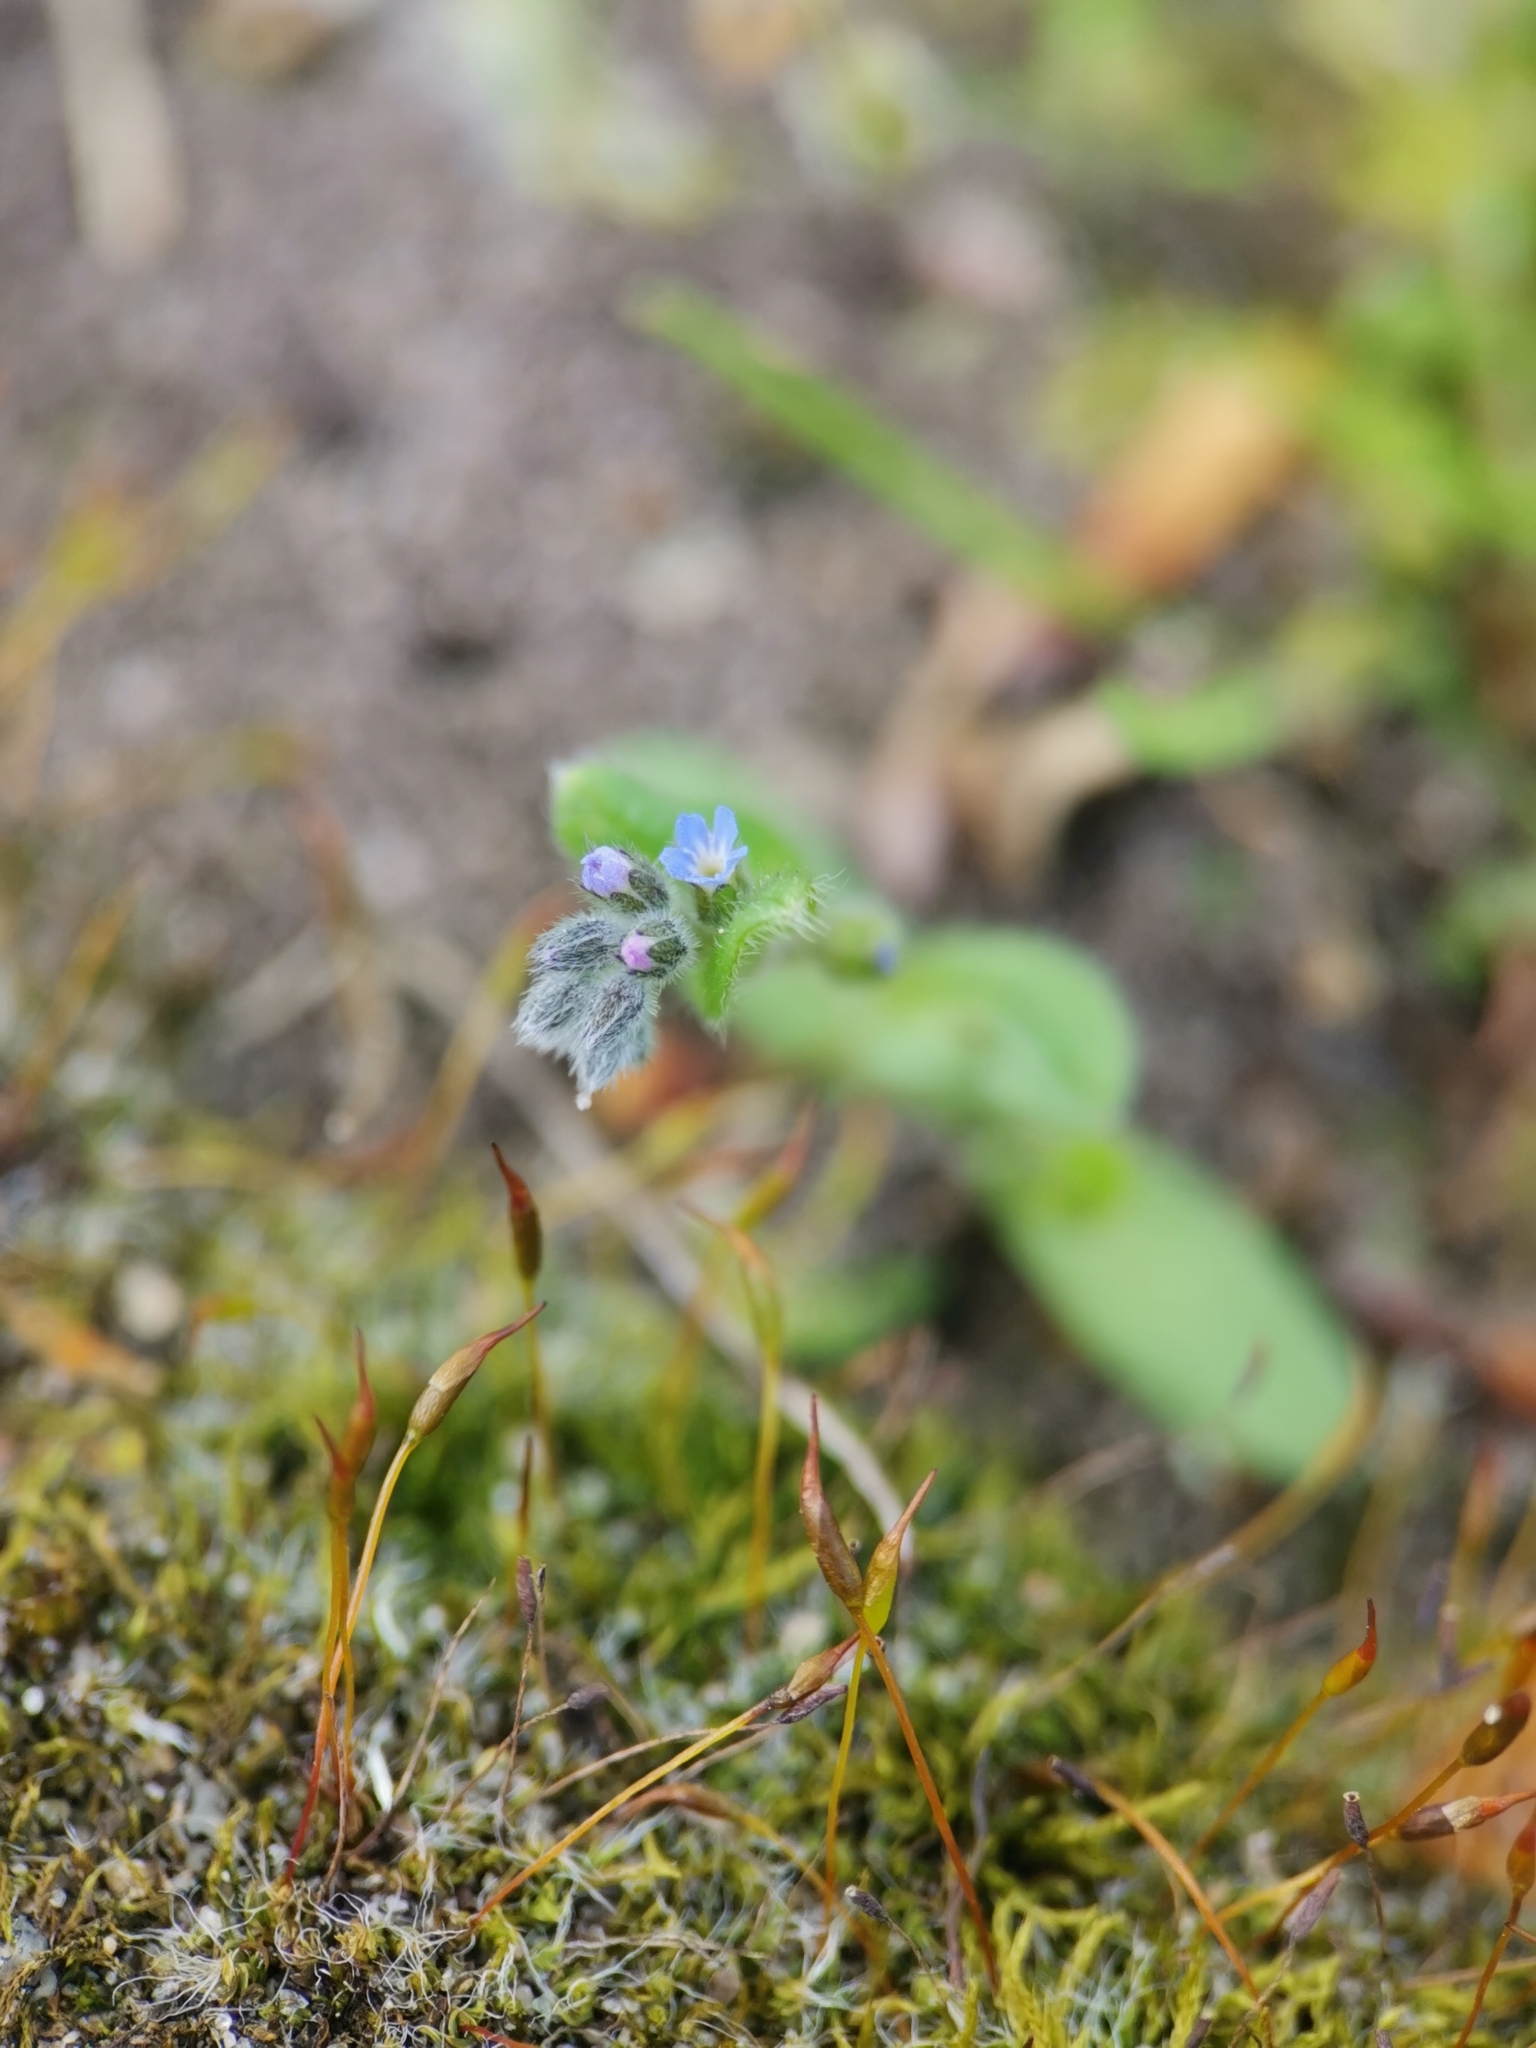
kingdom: Plantae
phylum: Tracheophyta
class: Magnoliopsida
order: Boraginales
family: Boraginaceae
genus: Myosotis
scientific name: Myosotis stricta
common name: Strict forget-me-not
